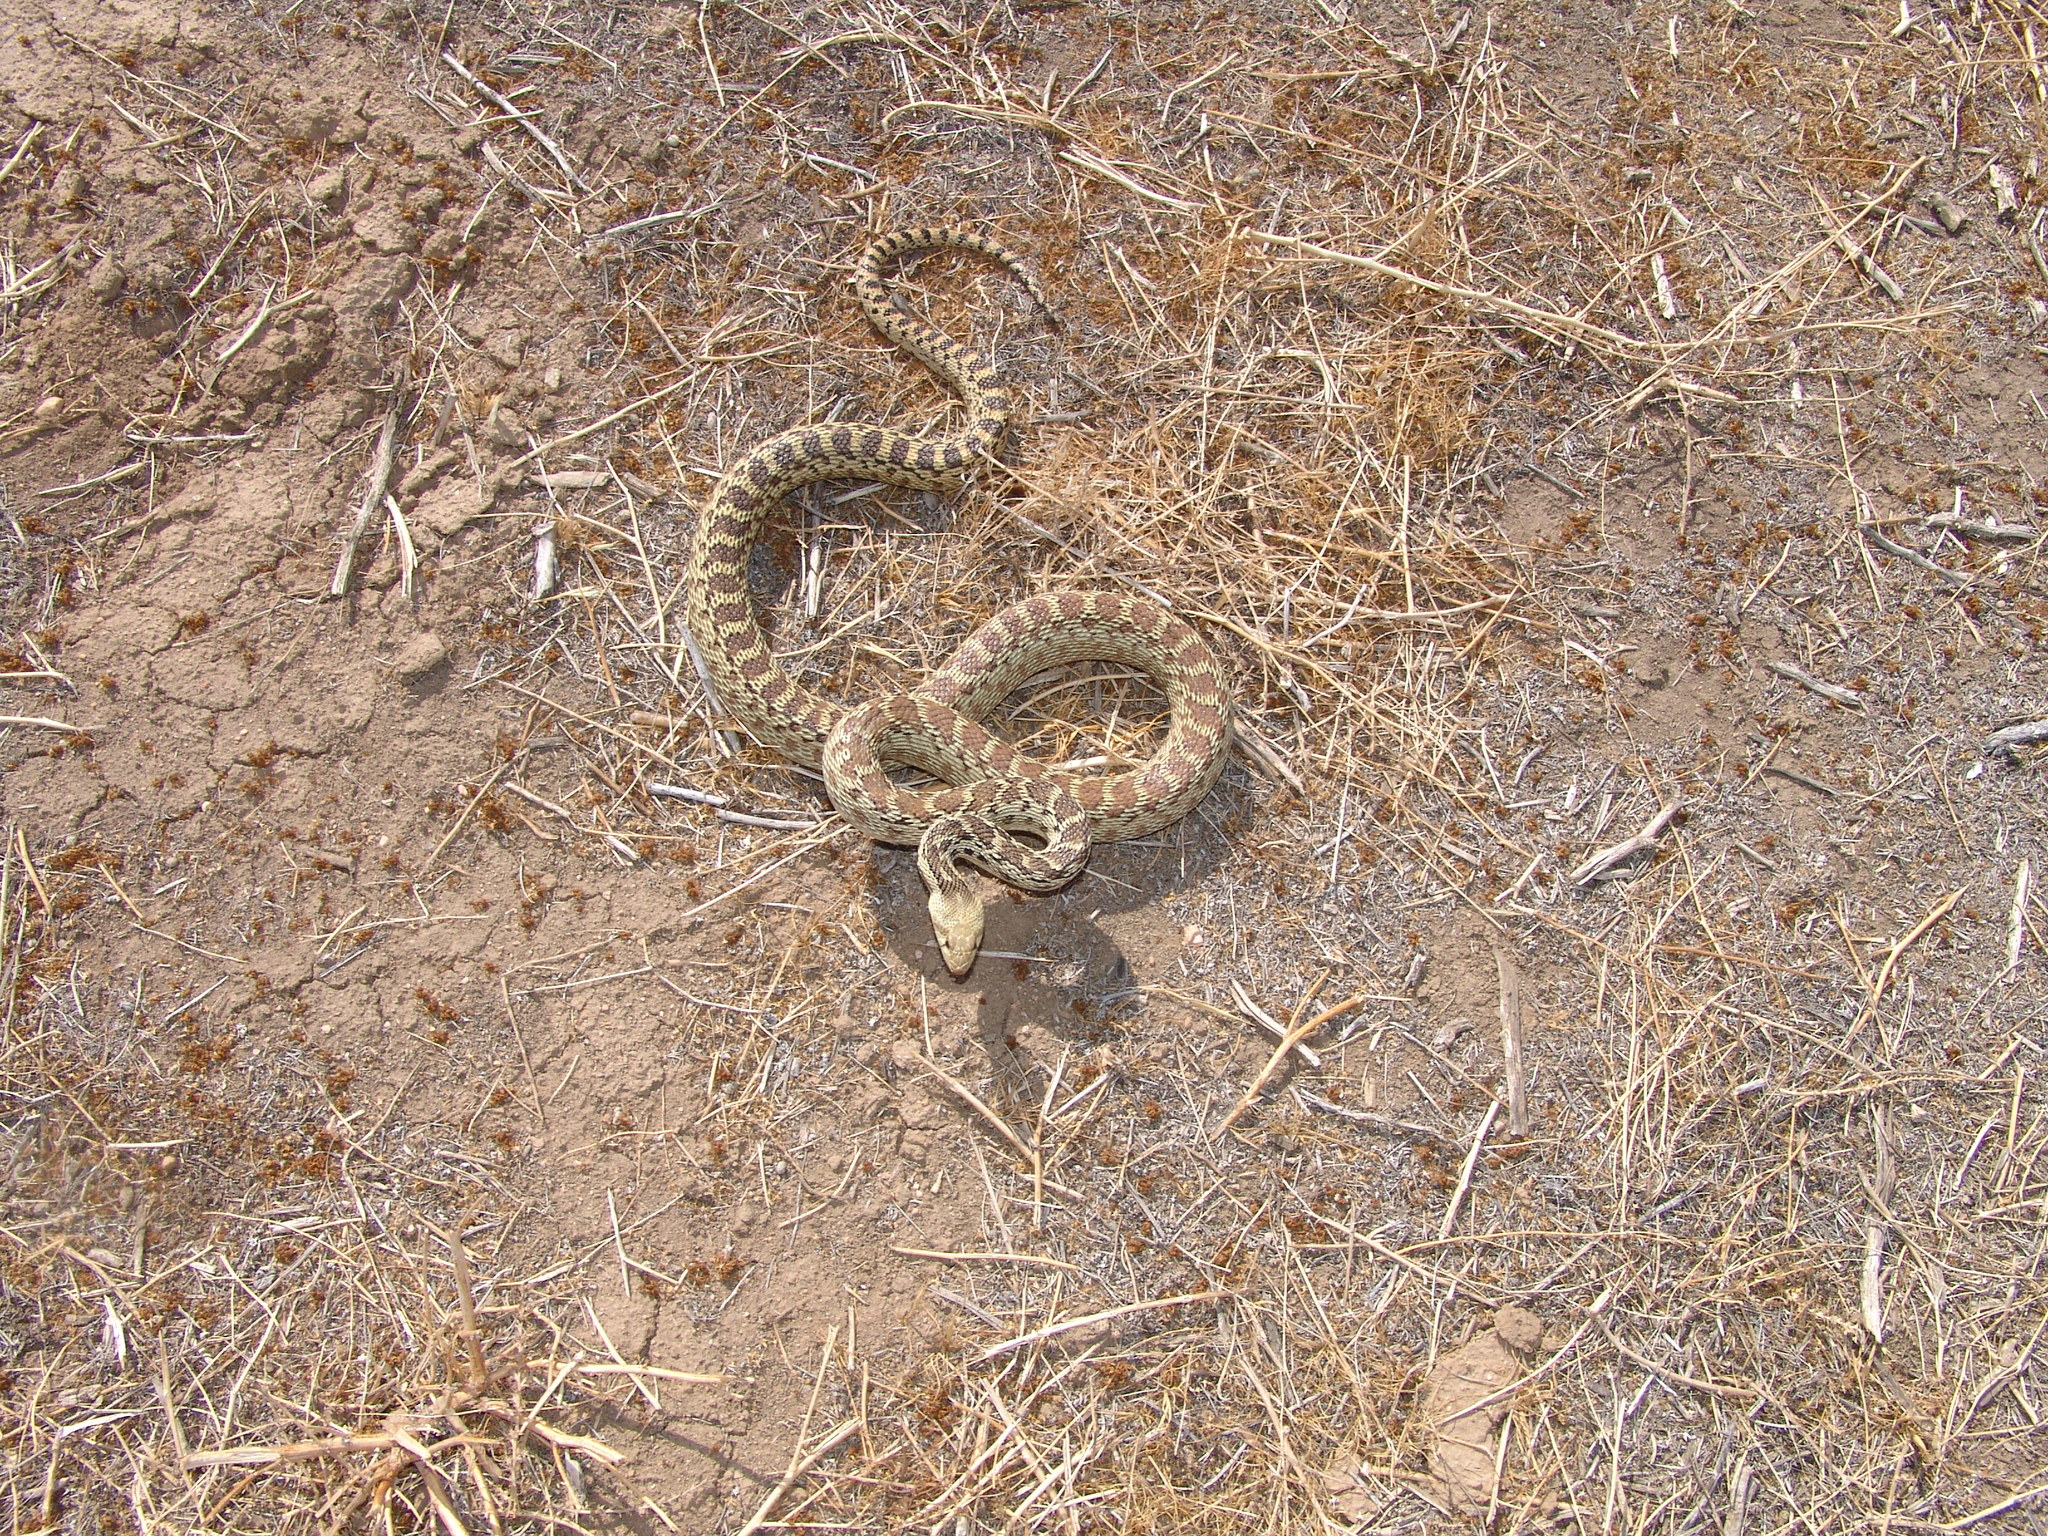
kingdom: Animalia
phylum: Chordata
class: Squamata
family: Colubridae
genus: Pituophis
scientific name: Pituophis catenifer
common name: Gopher snake
